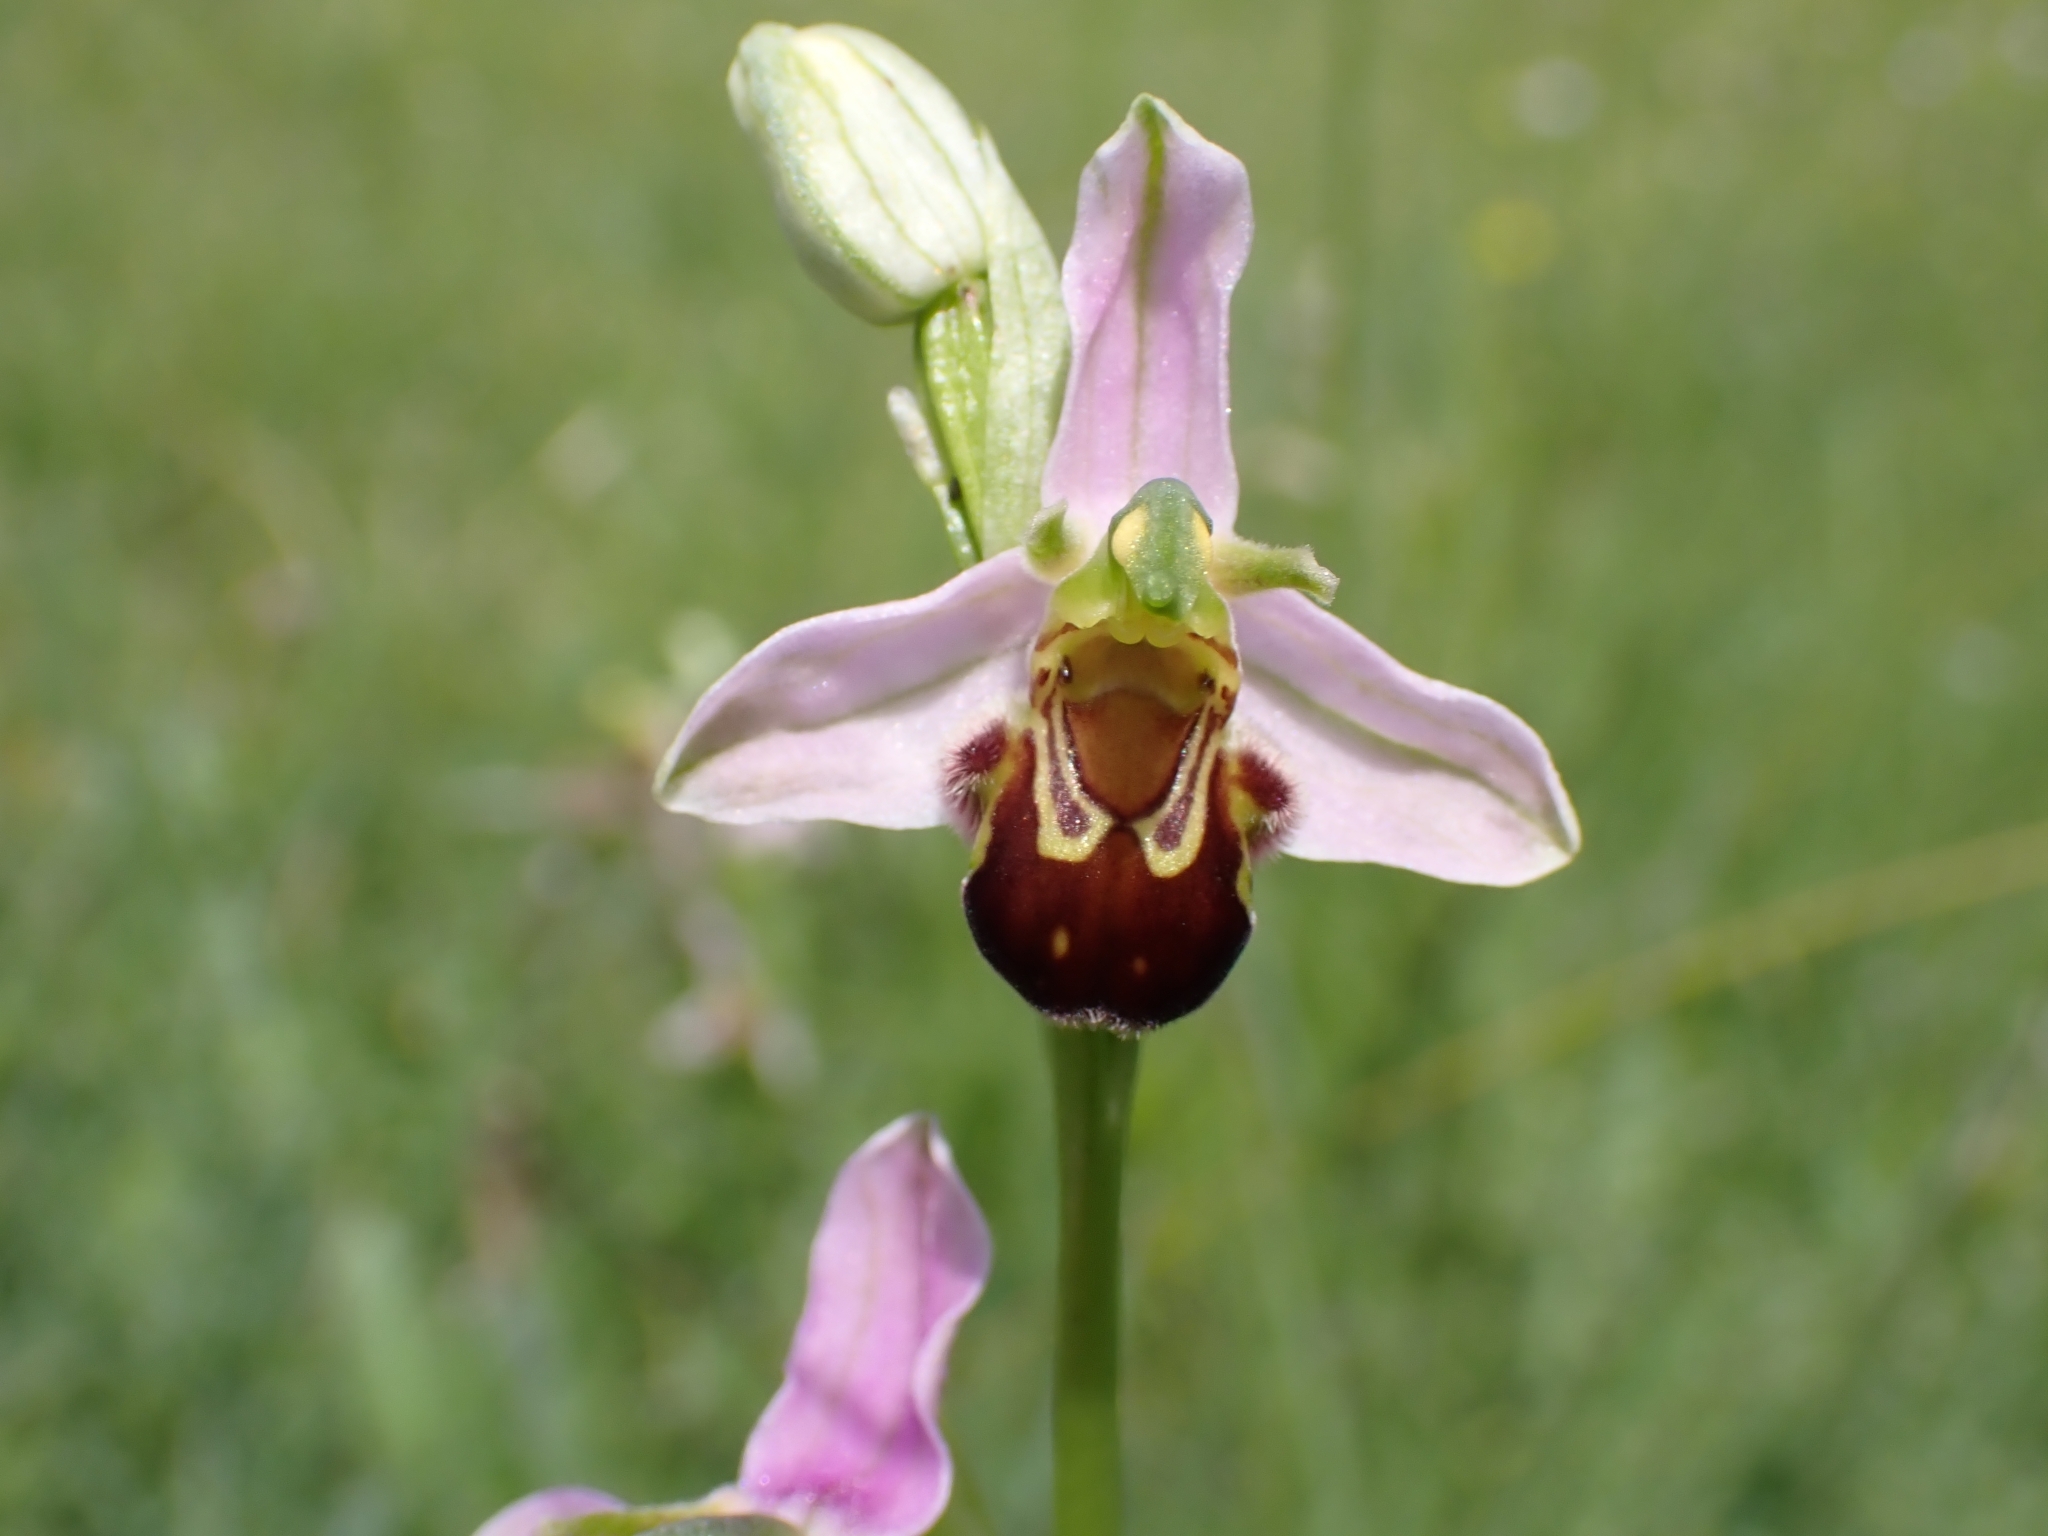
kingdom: Plantae
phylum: Tracheophyta
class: Liliopsida
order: Asparagales
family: Orchidaceae
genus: Ophrys
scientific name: Ophrys apifera
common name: Bee orchid
